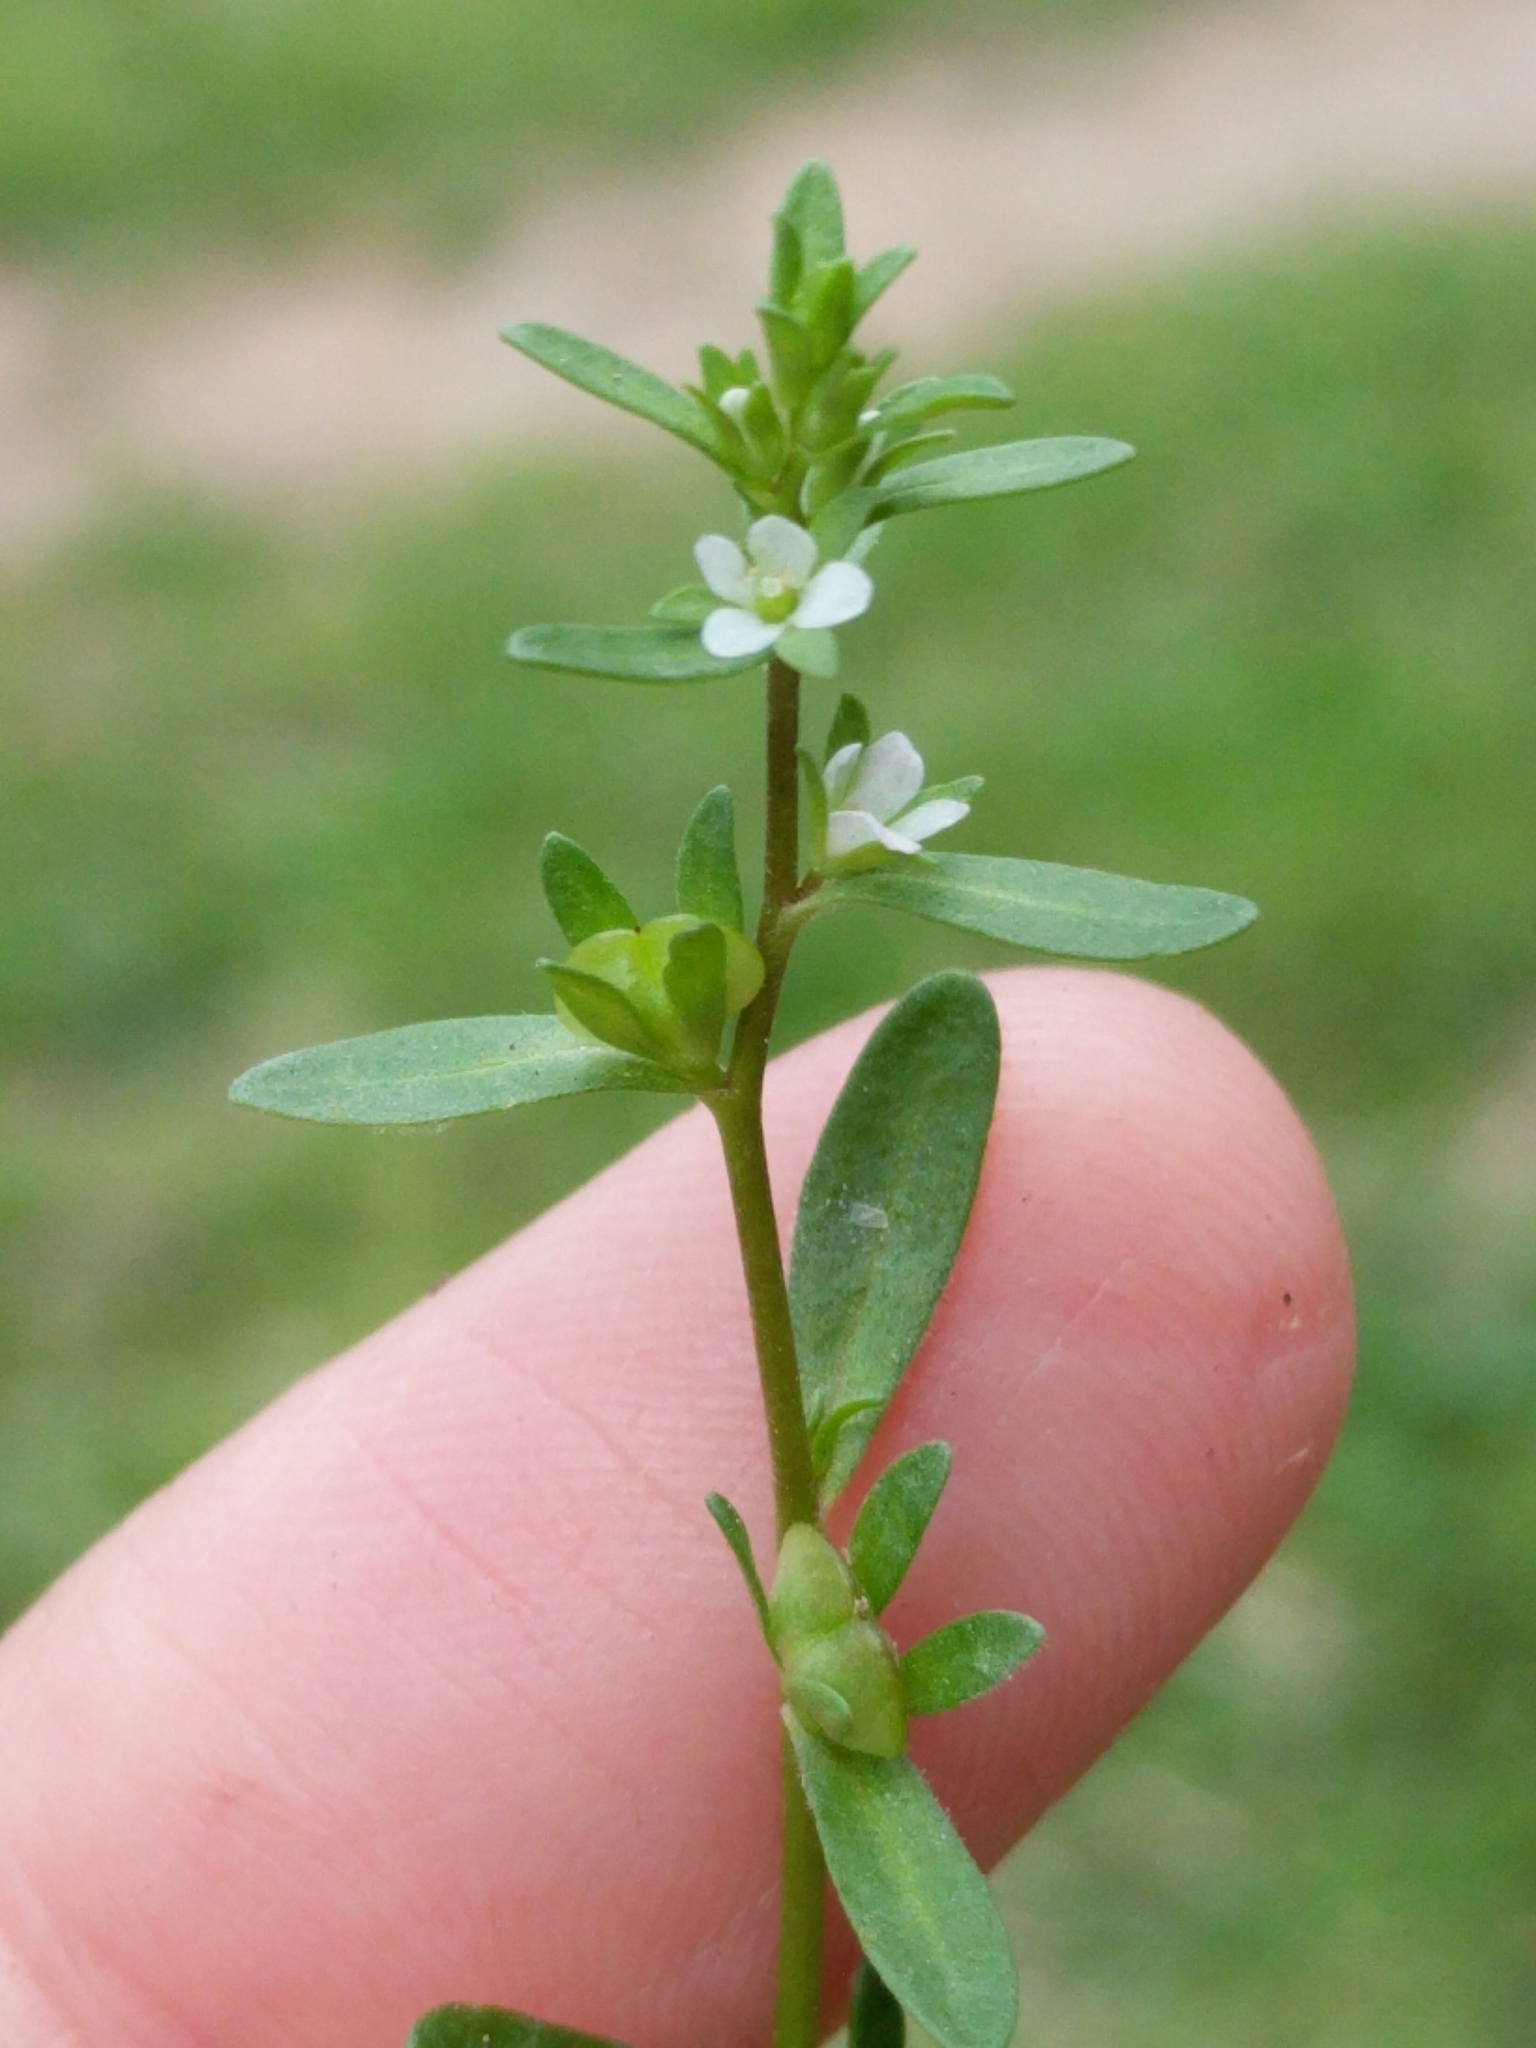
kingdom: Plantae
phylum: Tracheophyta
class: Magnoliopsida
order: Lamiales
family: Plantaginaceae
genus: Veronica
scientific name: Veronica peregrina
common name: Neckweed
